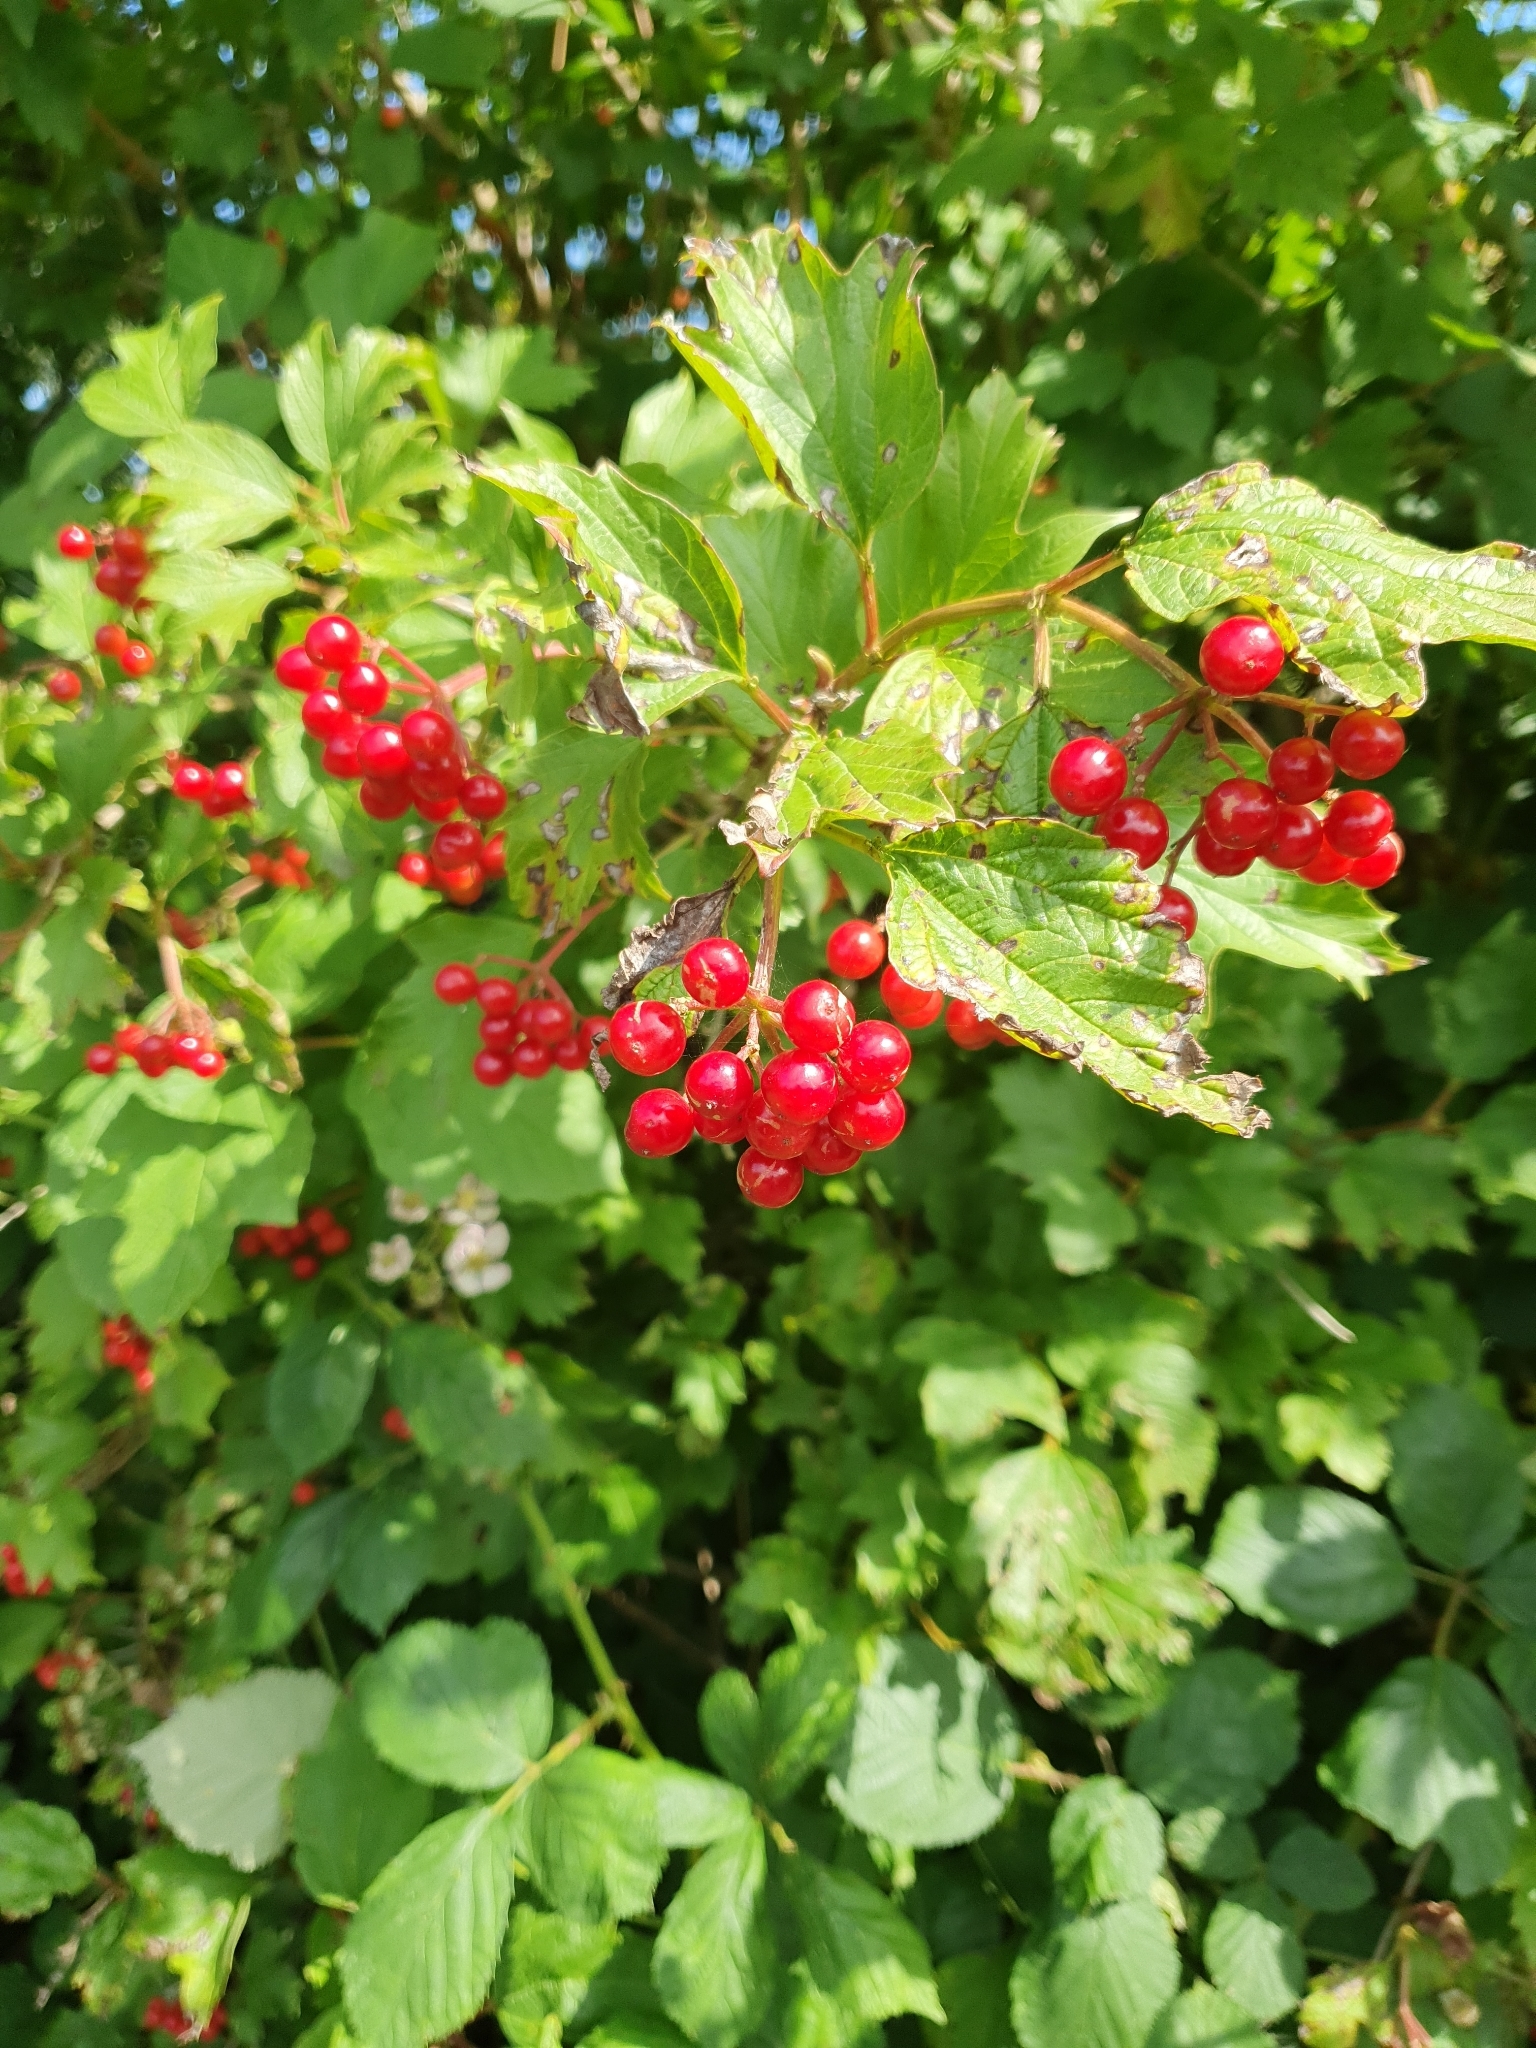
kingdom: Plantae
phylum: Tracheophyta
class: Magnoliopsida
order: Dipsacales
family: Viburnaceae
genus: Viburnum
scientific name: Viburnum opulus
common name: Guelder-rose
